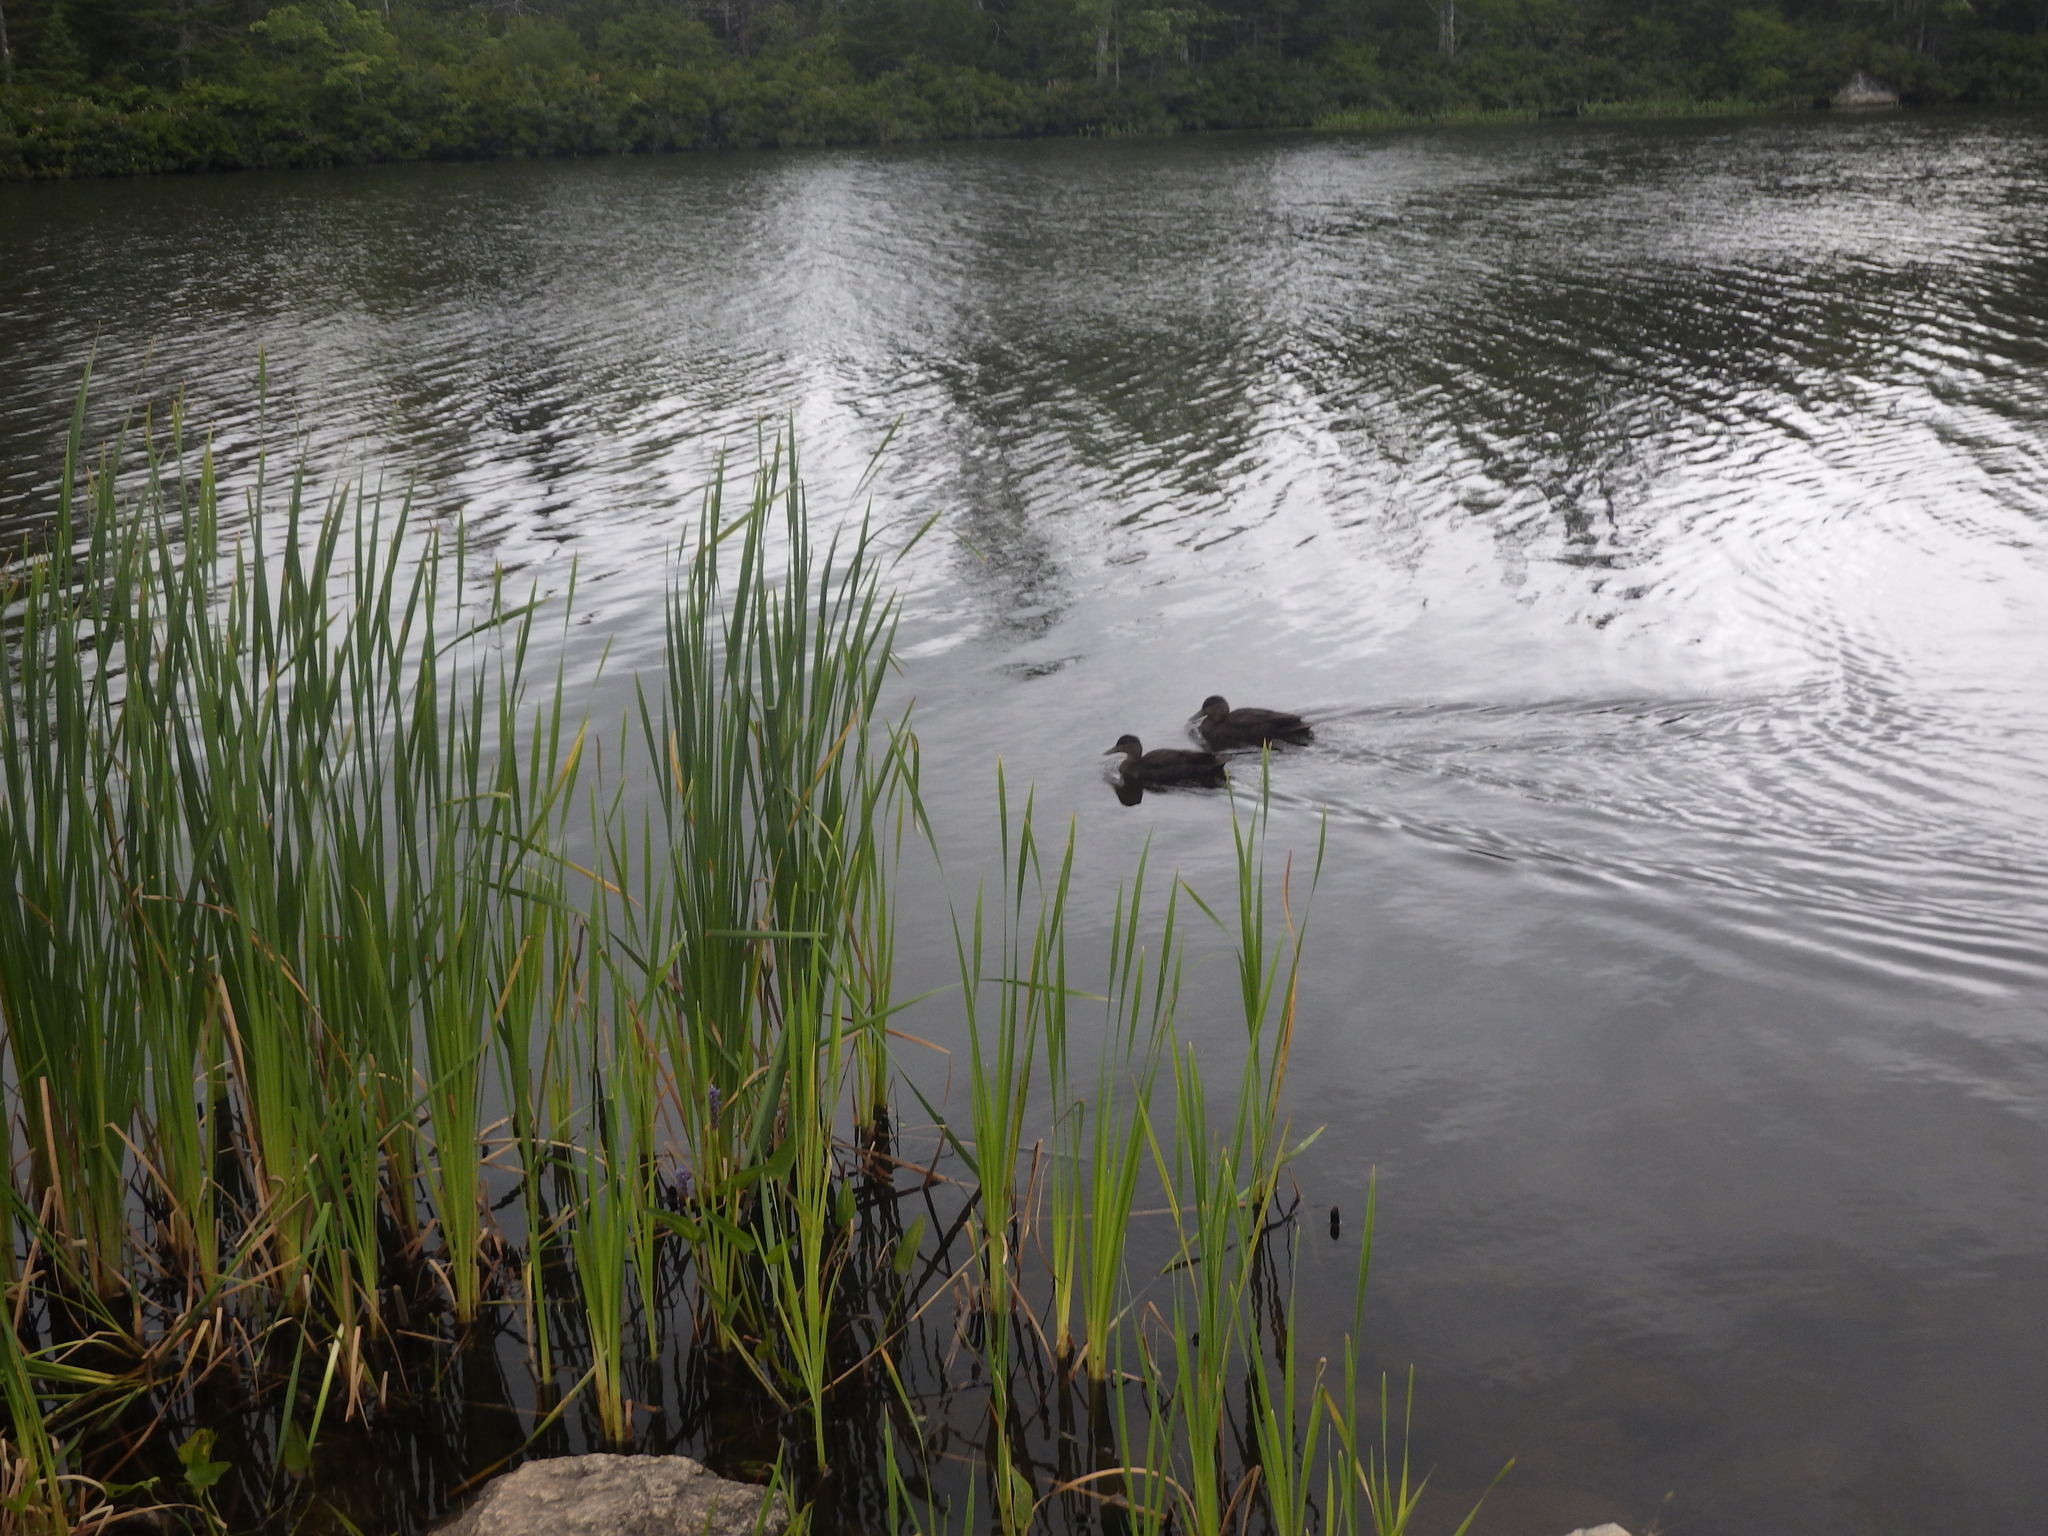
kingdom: Animalia
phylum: Chordata
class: Aves
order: Anseriformes
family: Anatidae
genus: Anas
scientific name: Anas rubripes
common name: American black duck
